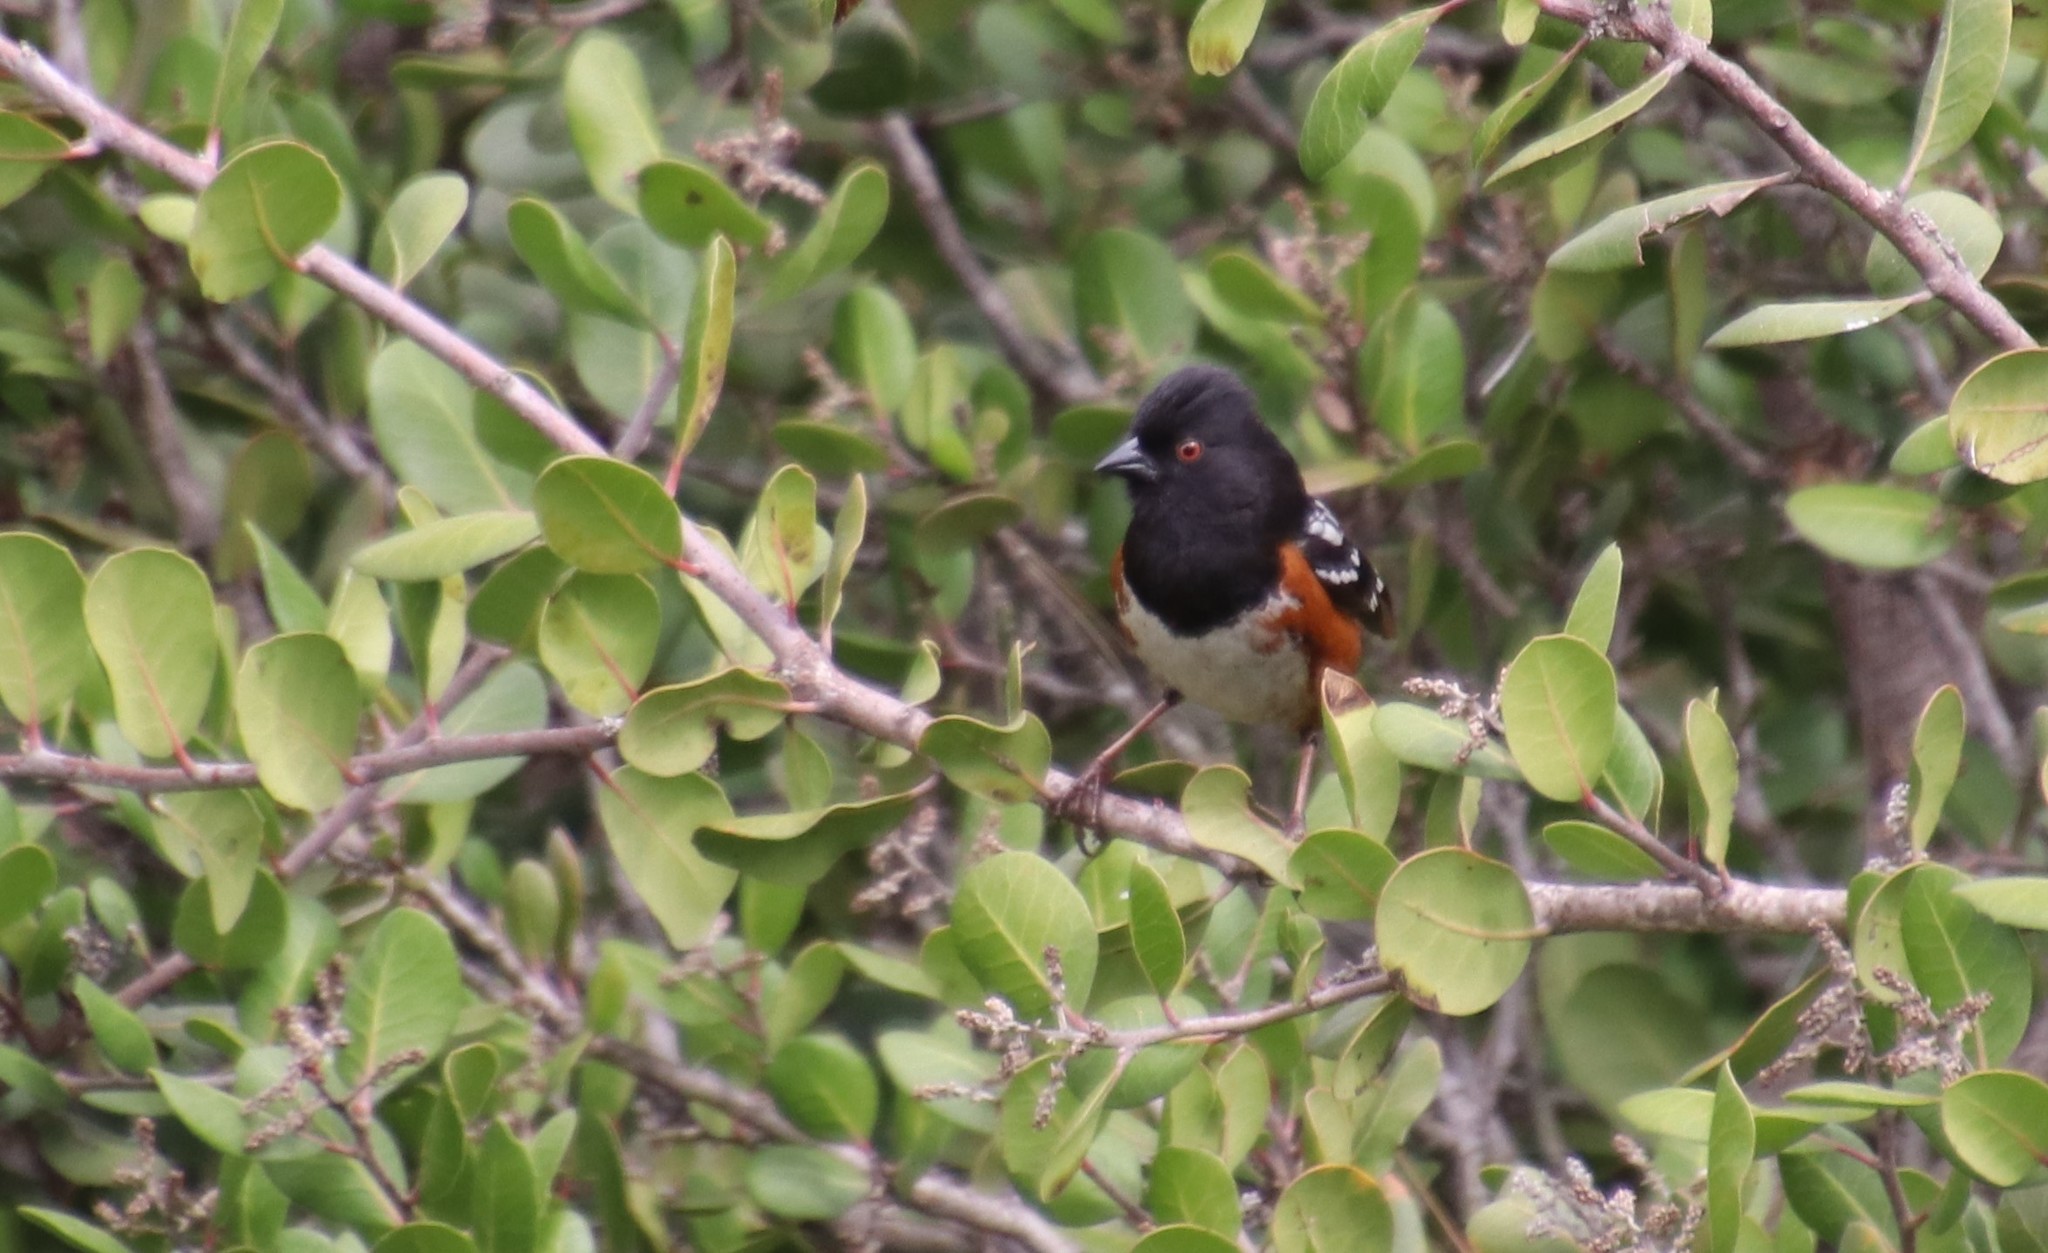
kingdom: Animalia
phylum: Chordata
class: Aves
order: Passeriformes
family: Passerellidae
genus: Pipilo
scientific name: Pipilo maculatus
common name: Spotted towhee
